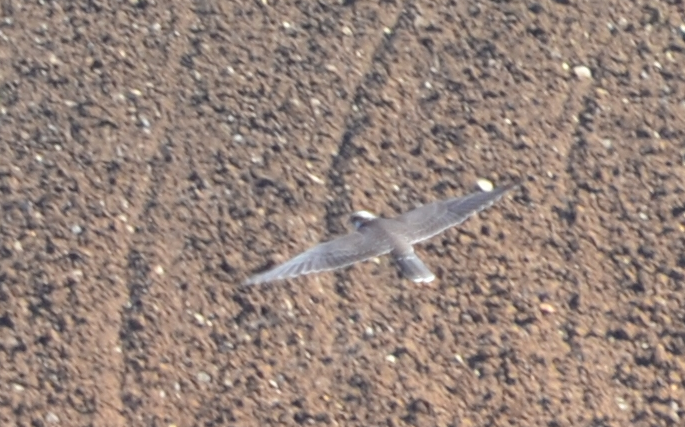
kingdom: Animalia
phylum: Chordata
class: Aves
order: Falconiformes
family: Falconidae
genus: Falco
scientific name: Falco biarmicus
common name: Lanner falcon
